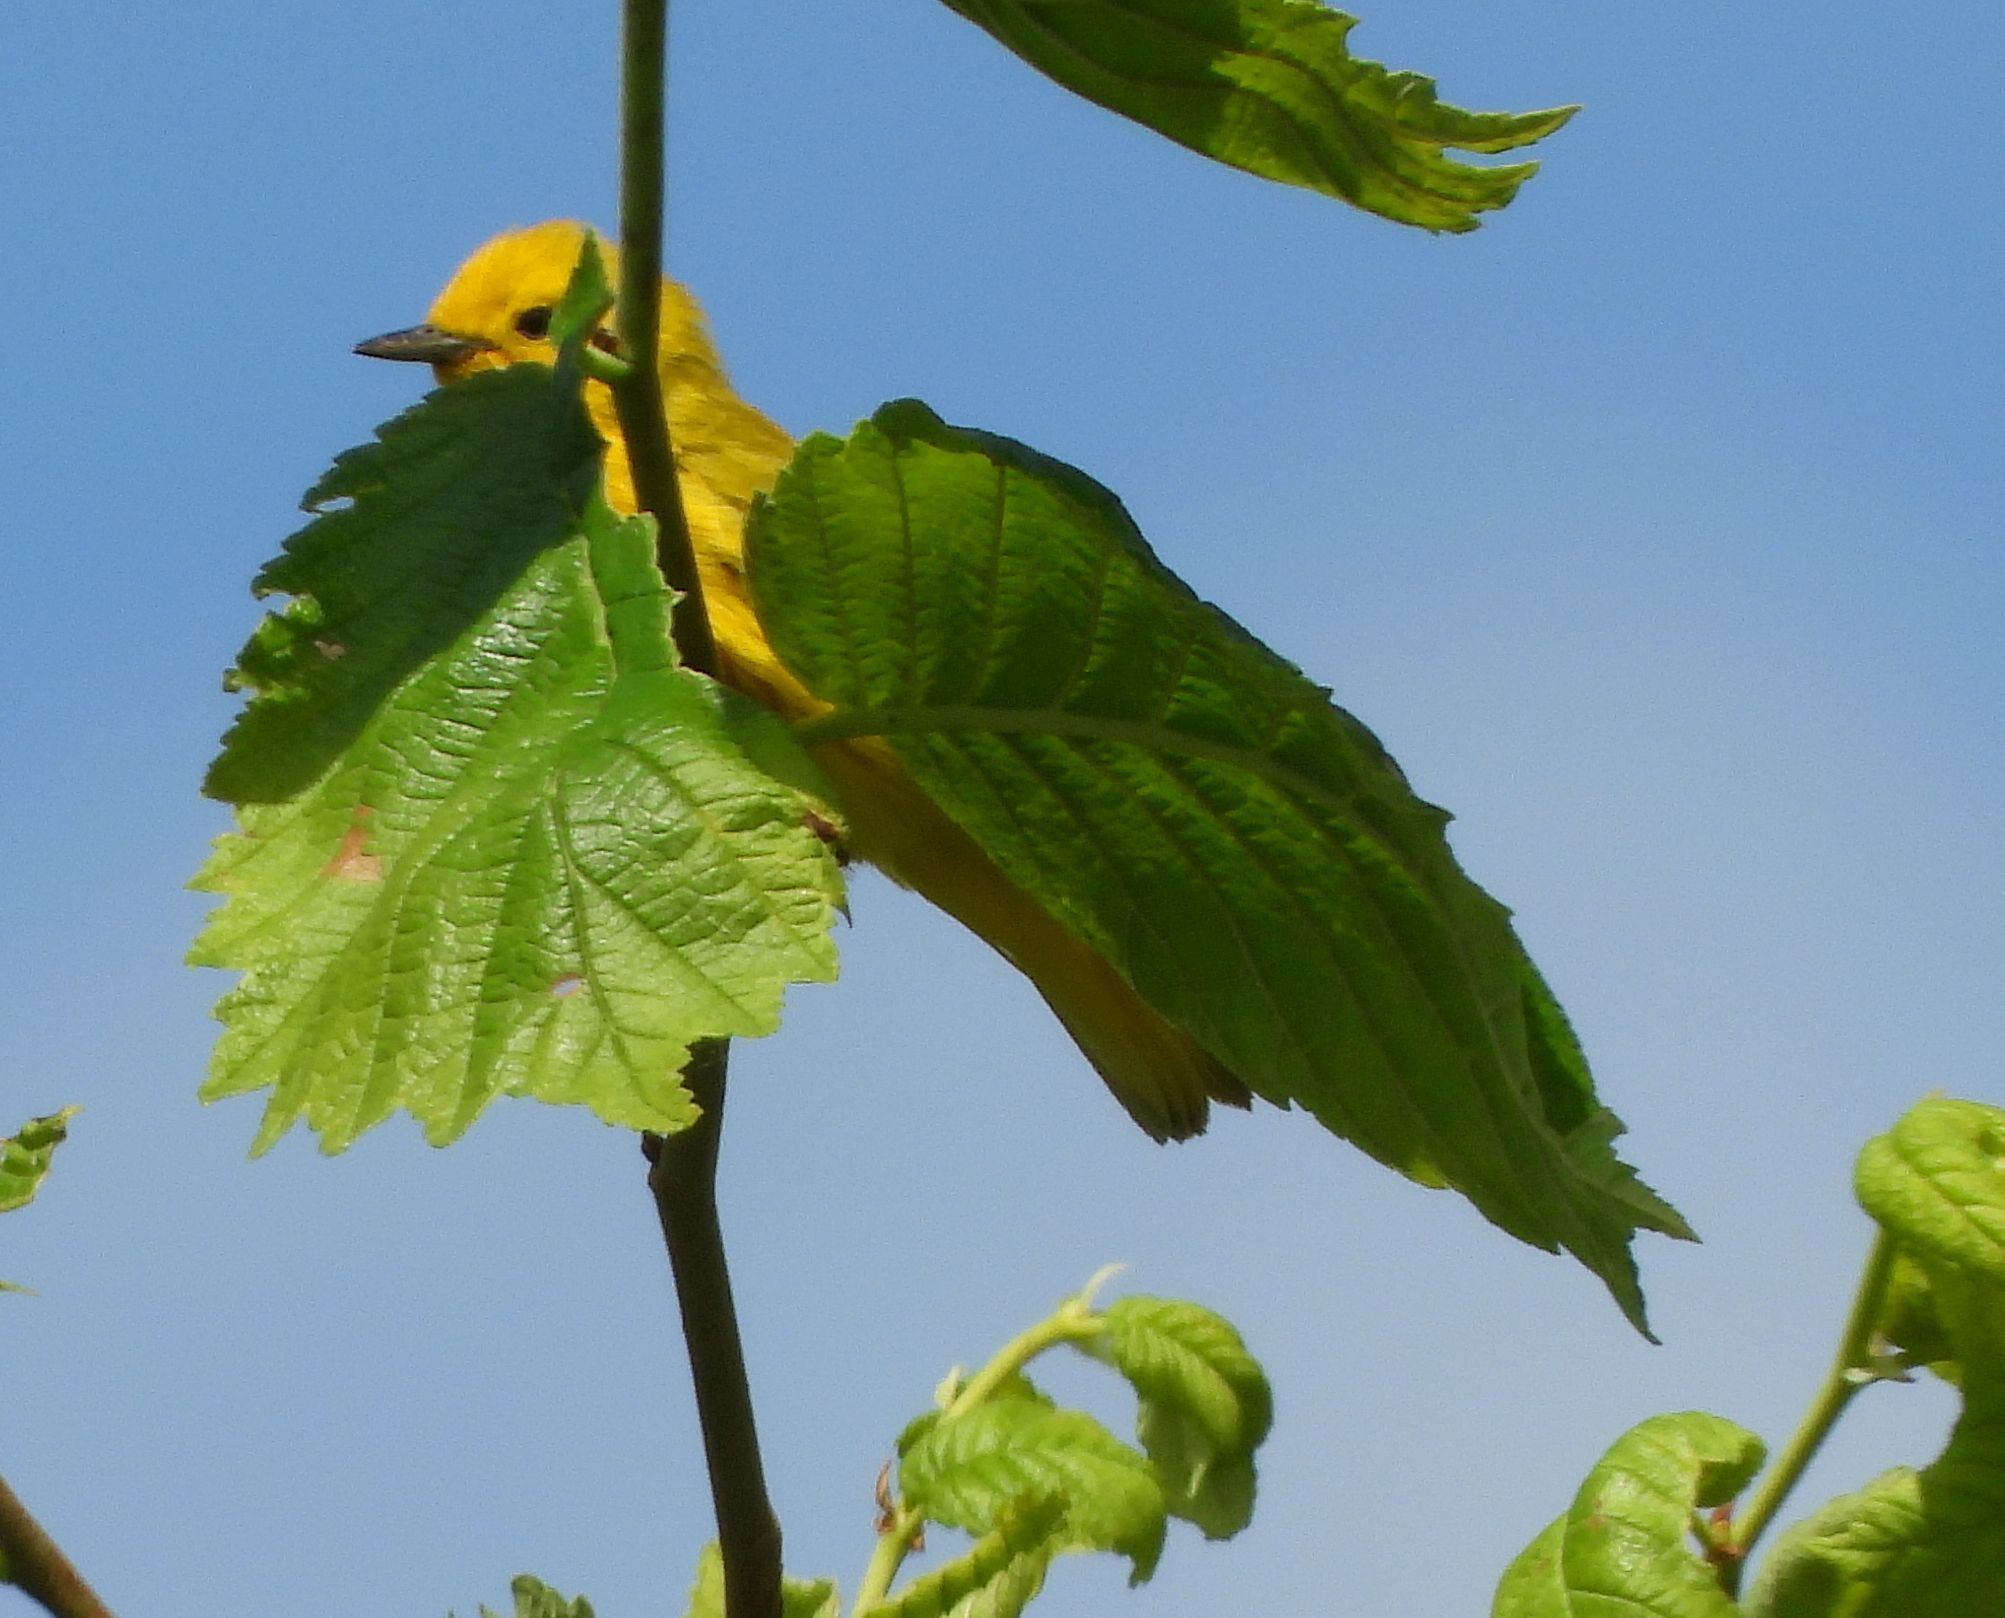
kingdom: Animalia
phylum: Chordata
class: Aves
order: Passeriformes
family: Parulidae
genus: Setophaga
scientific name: Setophaga petechia
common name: Yellow warbler
